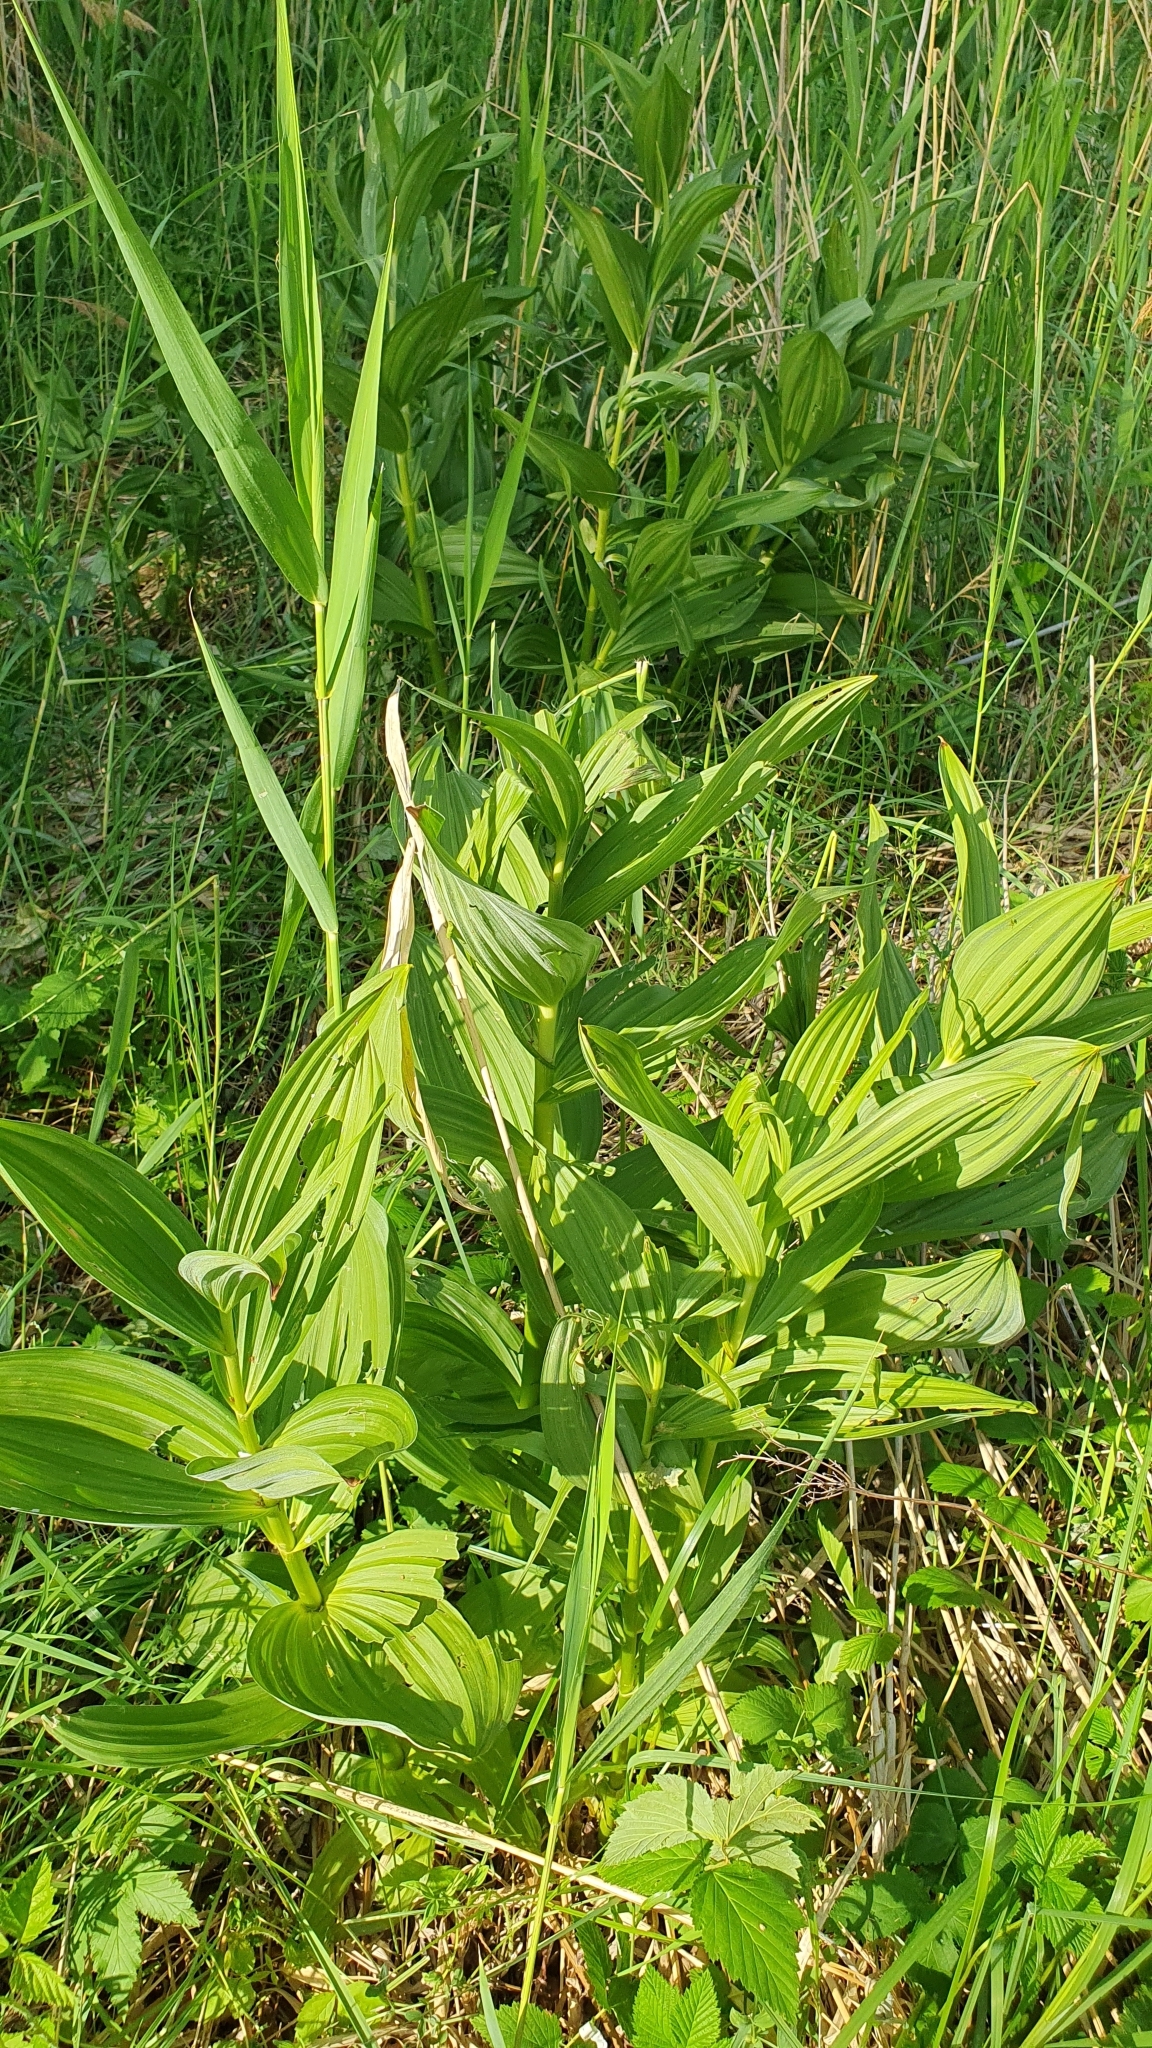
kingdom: Plantae
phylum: Tracheophyta
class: Liliopsida
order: Liliales
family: Melanthiaceae
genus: Veratrum
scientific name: Veratrum lobelianum
